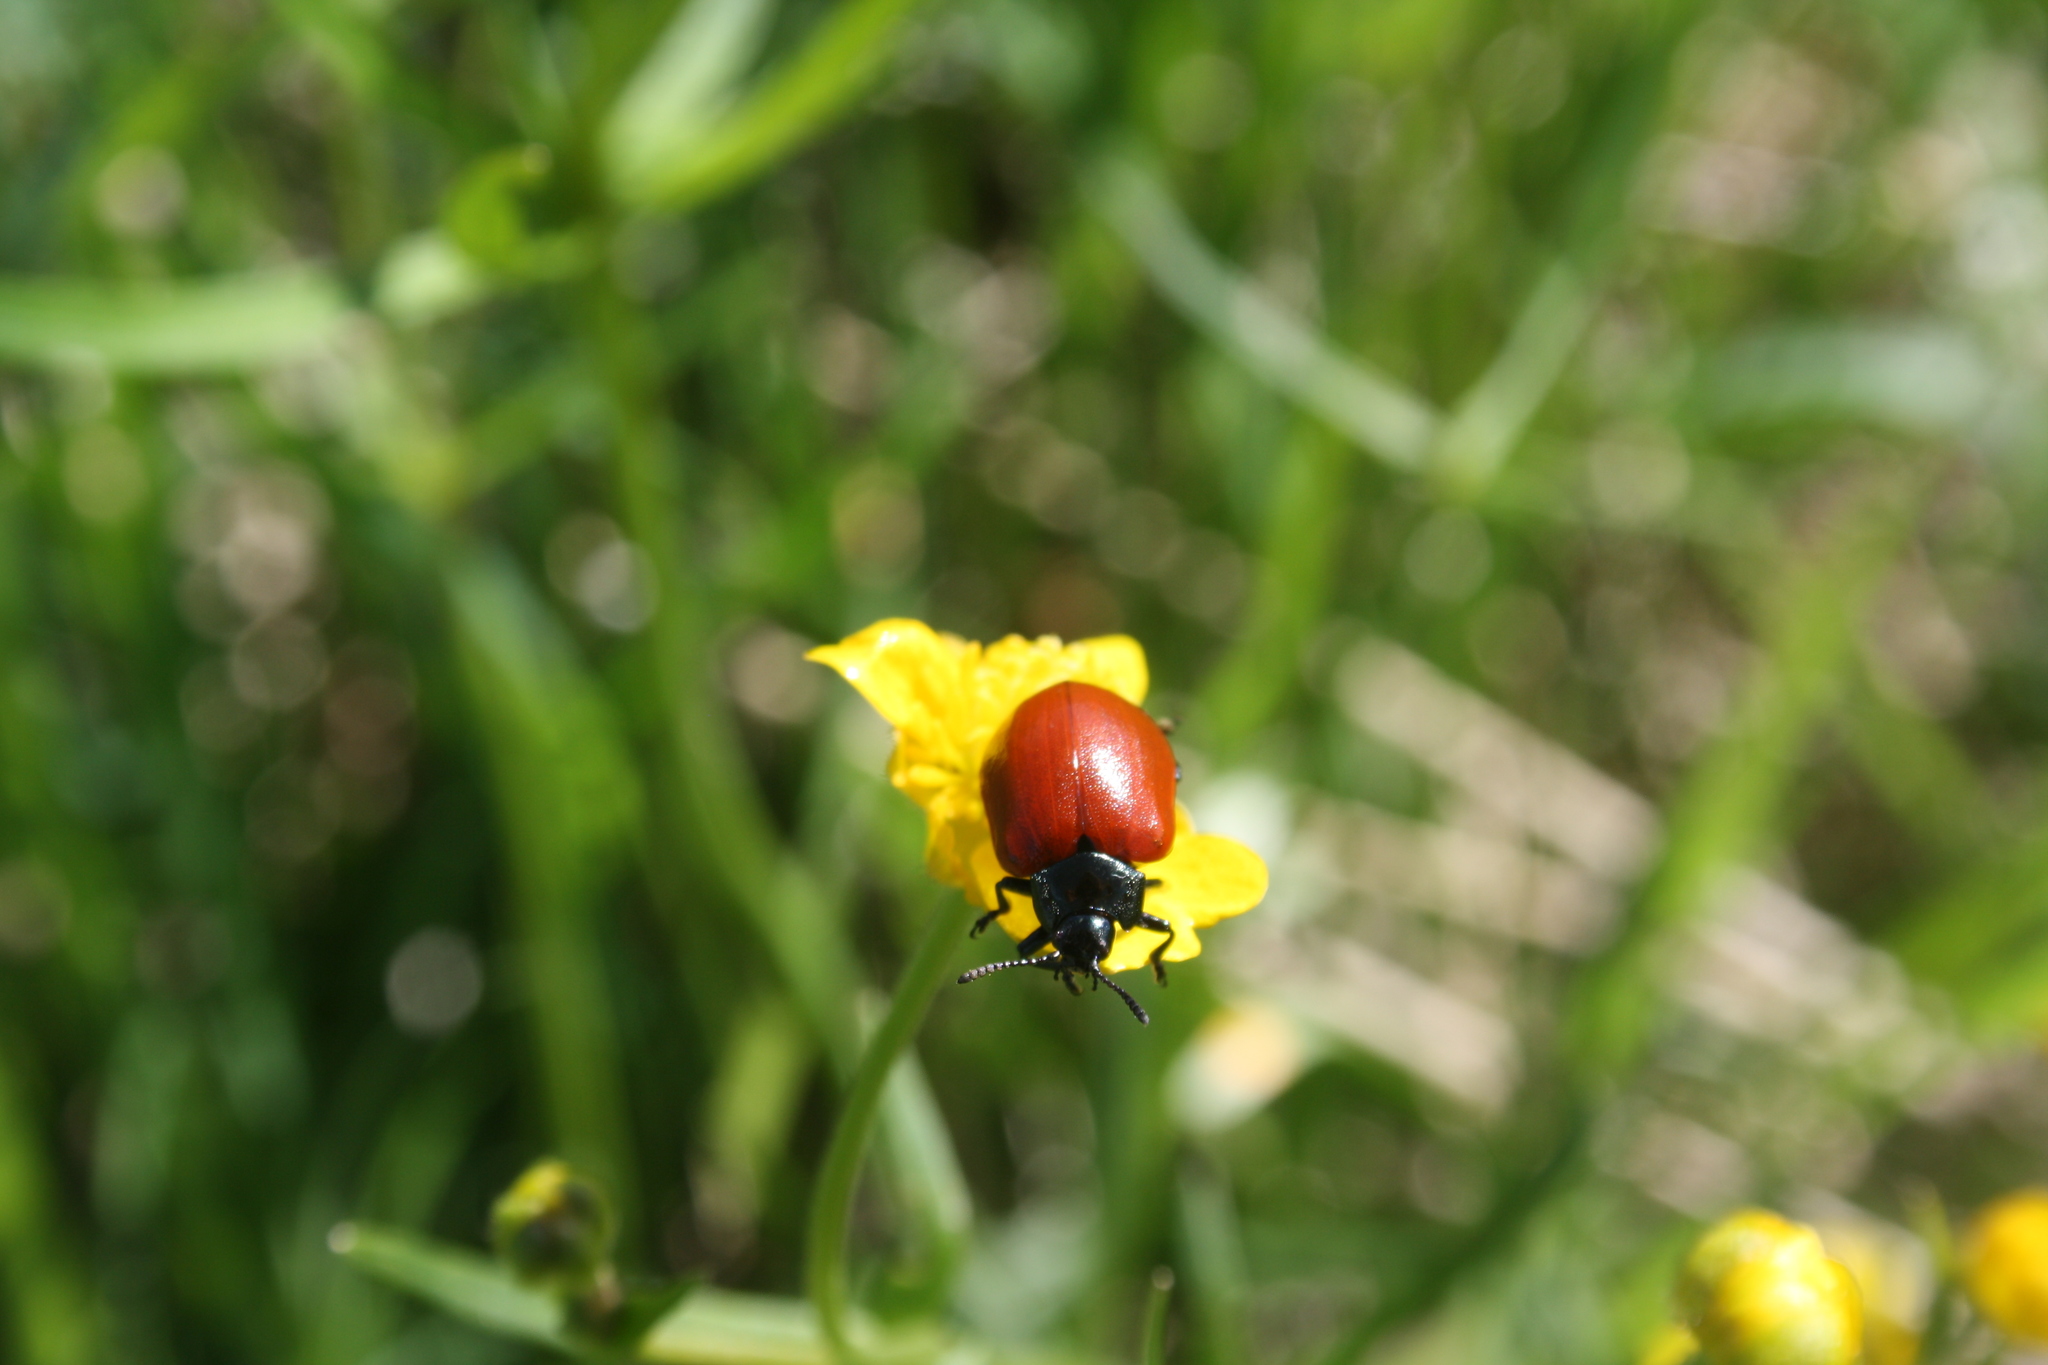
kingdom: Animalia
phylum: Arthropoda
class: Insecta
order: Coleoptera
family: Chrysomelidae
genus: Chrysomela
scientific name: Chrysomela populi
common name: Red poplar leaf beetle
